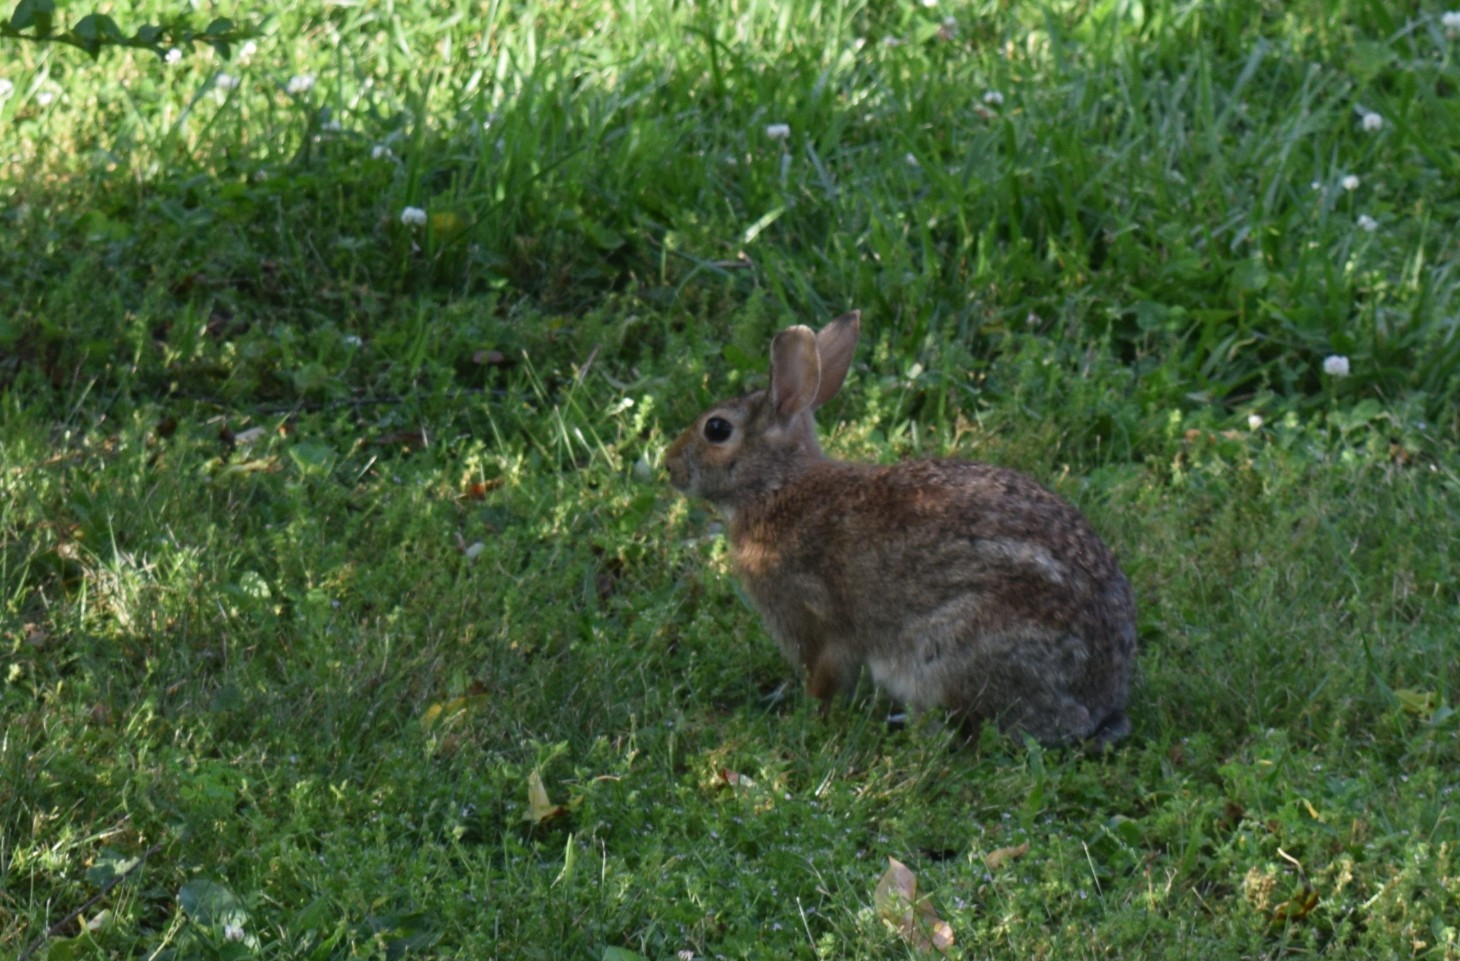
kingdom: Animalia
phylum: Chordata
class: Mammalia
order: Lagomorpha
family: Leporidae
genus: Sylvilagus
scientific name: Sylvilagus floridanus
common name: Eastern cottontail
